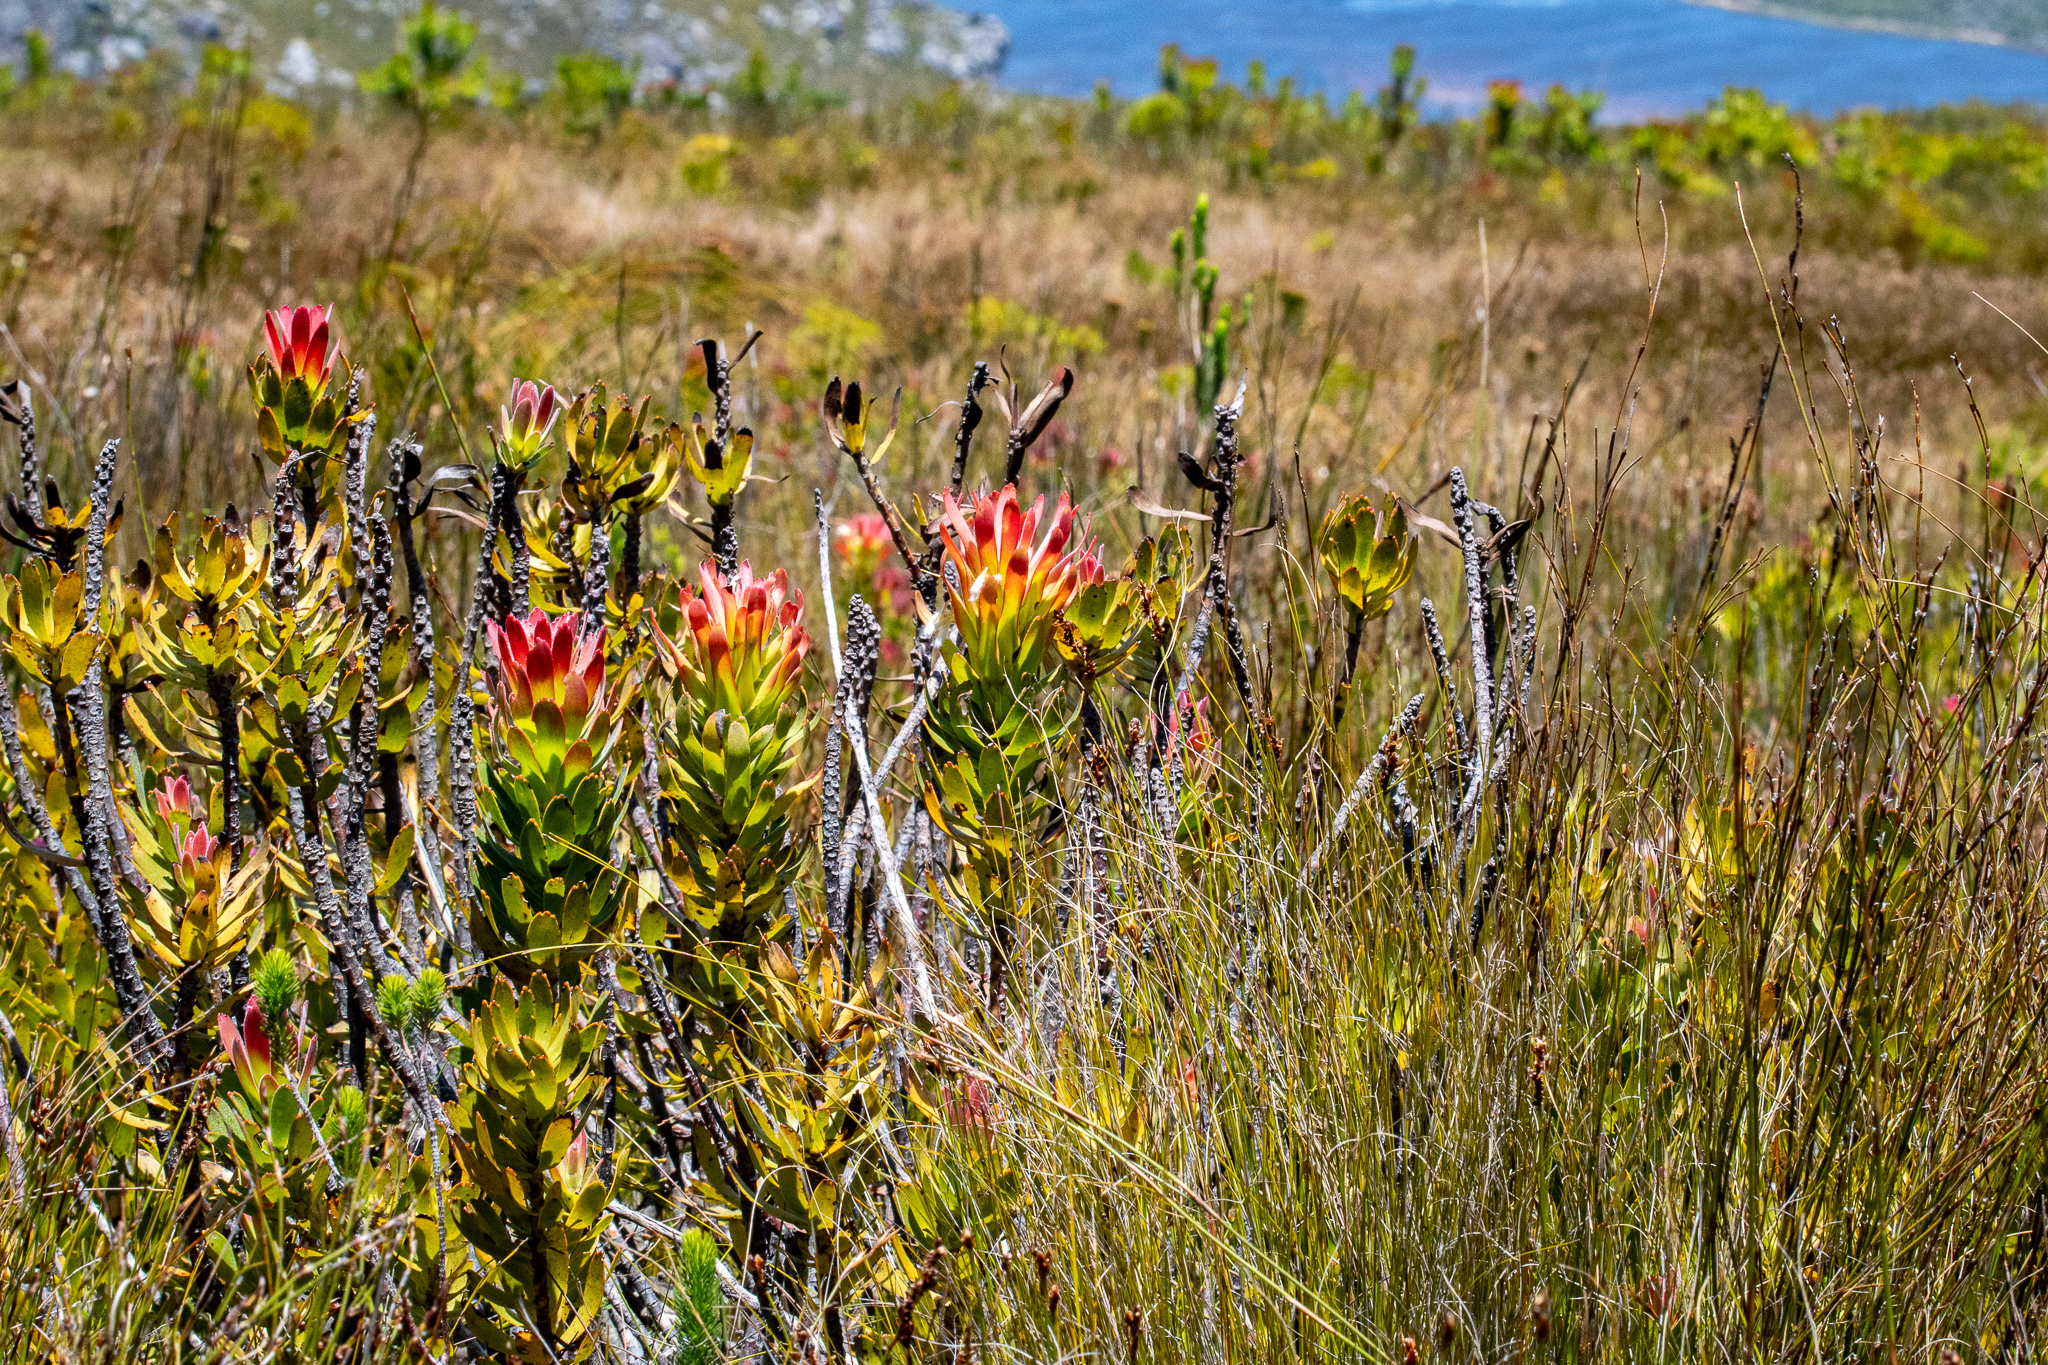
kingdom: Plantae
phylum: Tracheophyta
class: Magnoliopsida
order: Proteales
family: Proteaceae
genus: Mimetes
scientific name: Mimetes cucullatus
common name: Common pagoda
